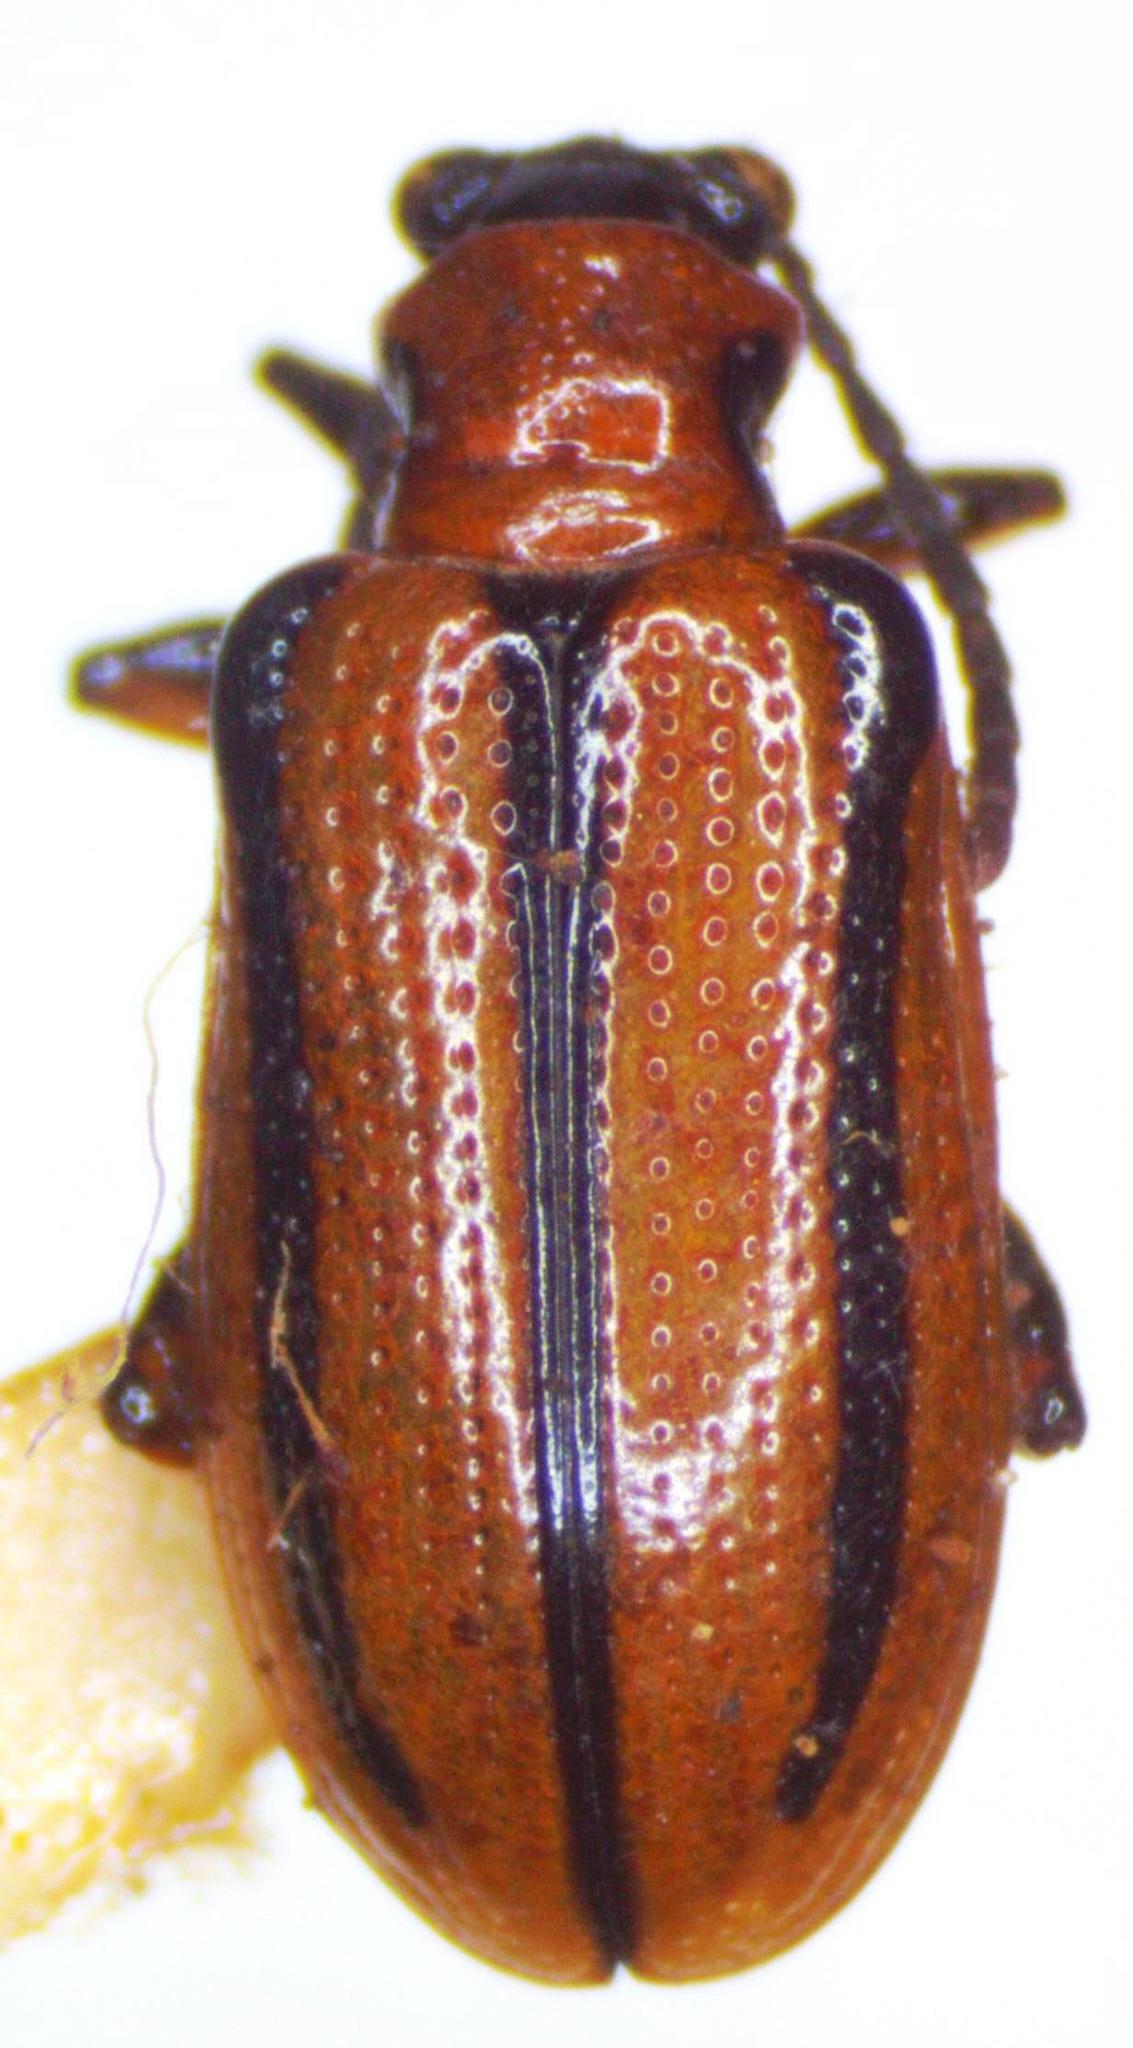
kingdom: Animalia
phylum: Arthropoda
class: Insecta
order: Coleoptera
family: Chrysomelidae
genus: Lema
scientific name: Lema nigrovittata
